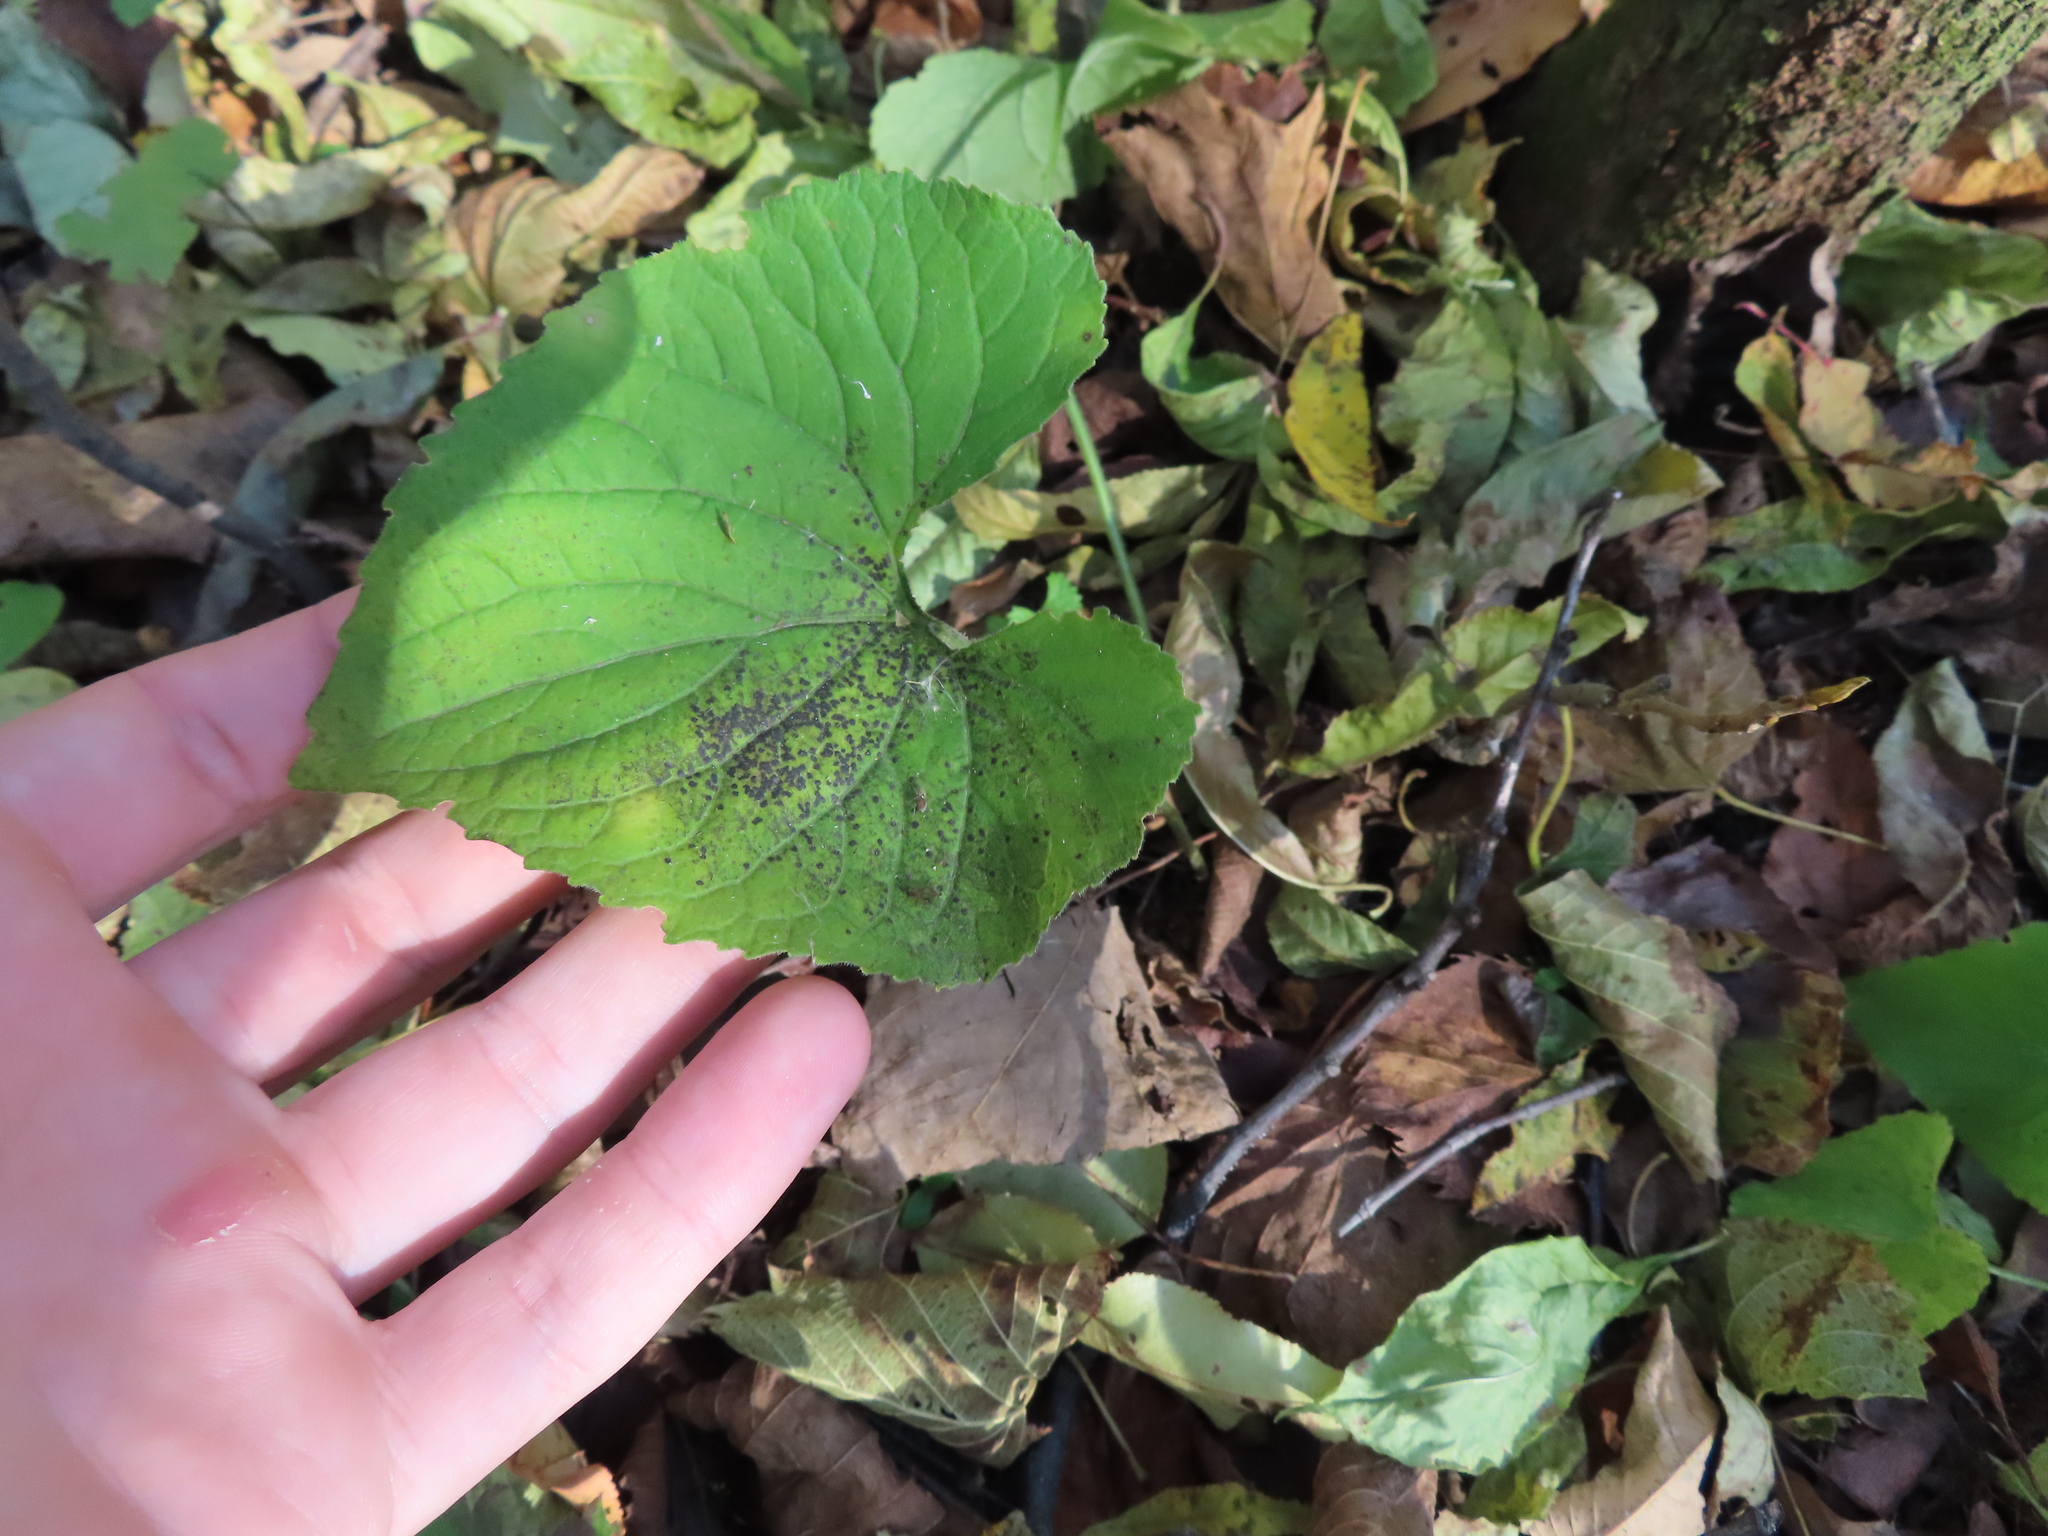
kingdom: Plantae
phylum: Tracheophyta
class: Magnoliopsida
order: Malpighiales
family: Violaceae
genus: Viola
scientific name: Viola
